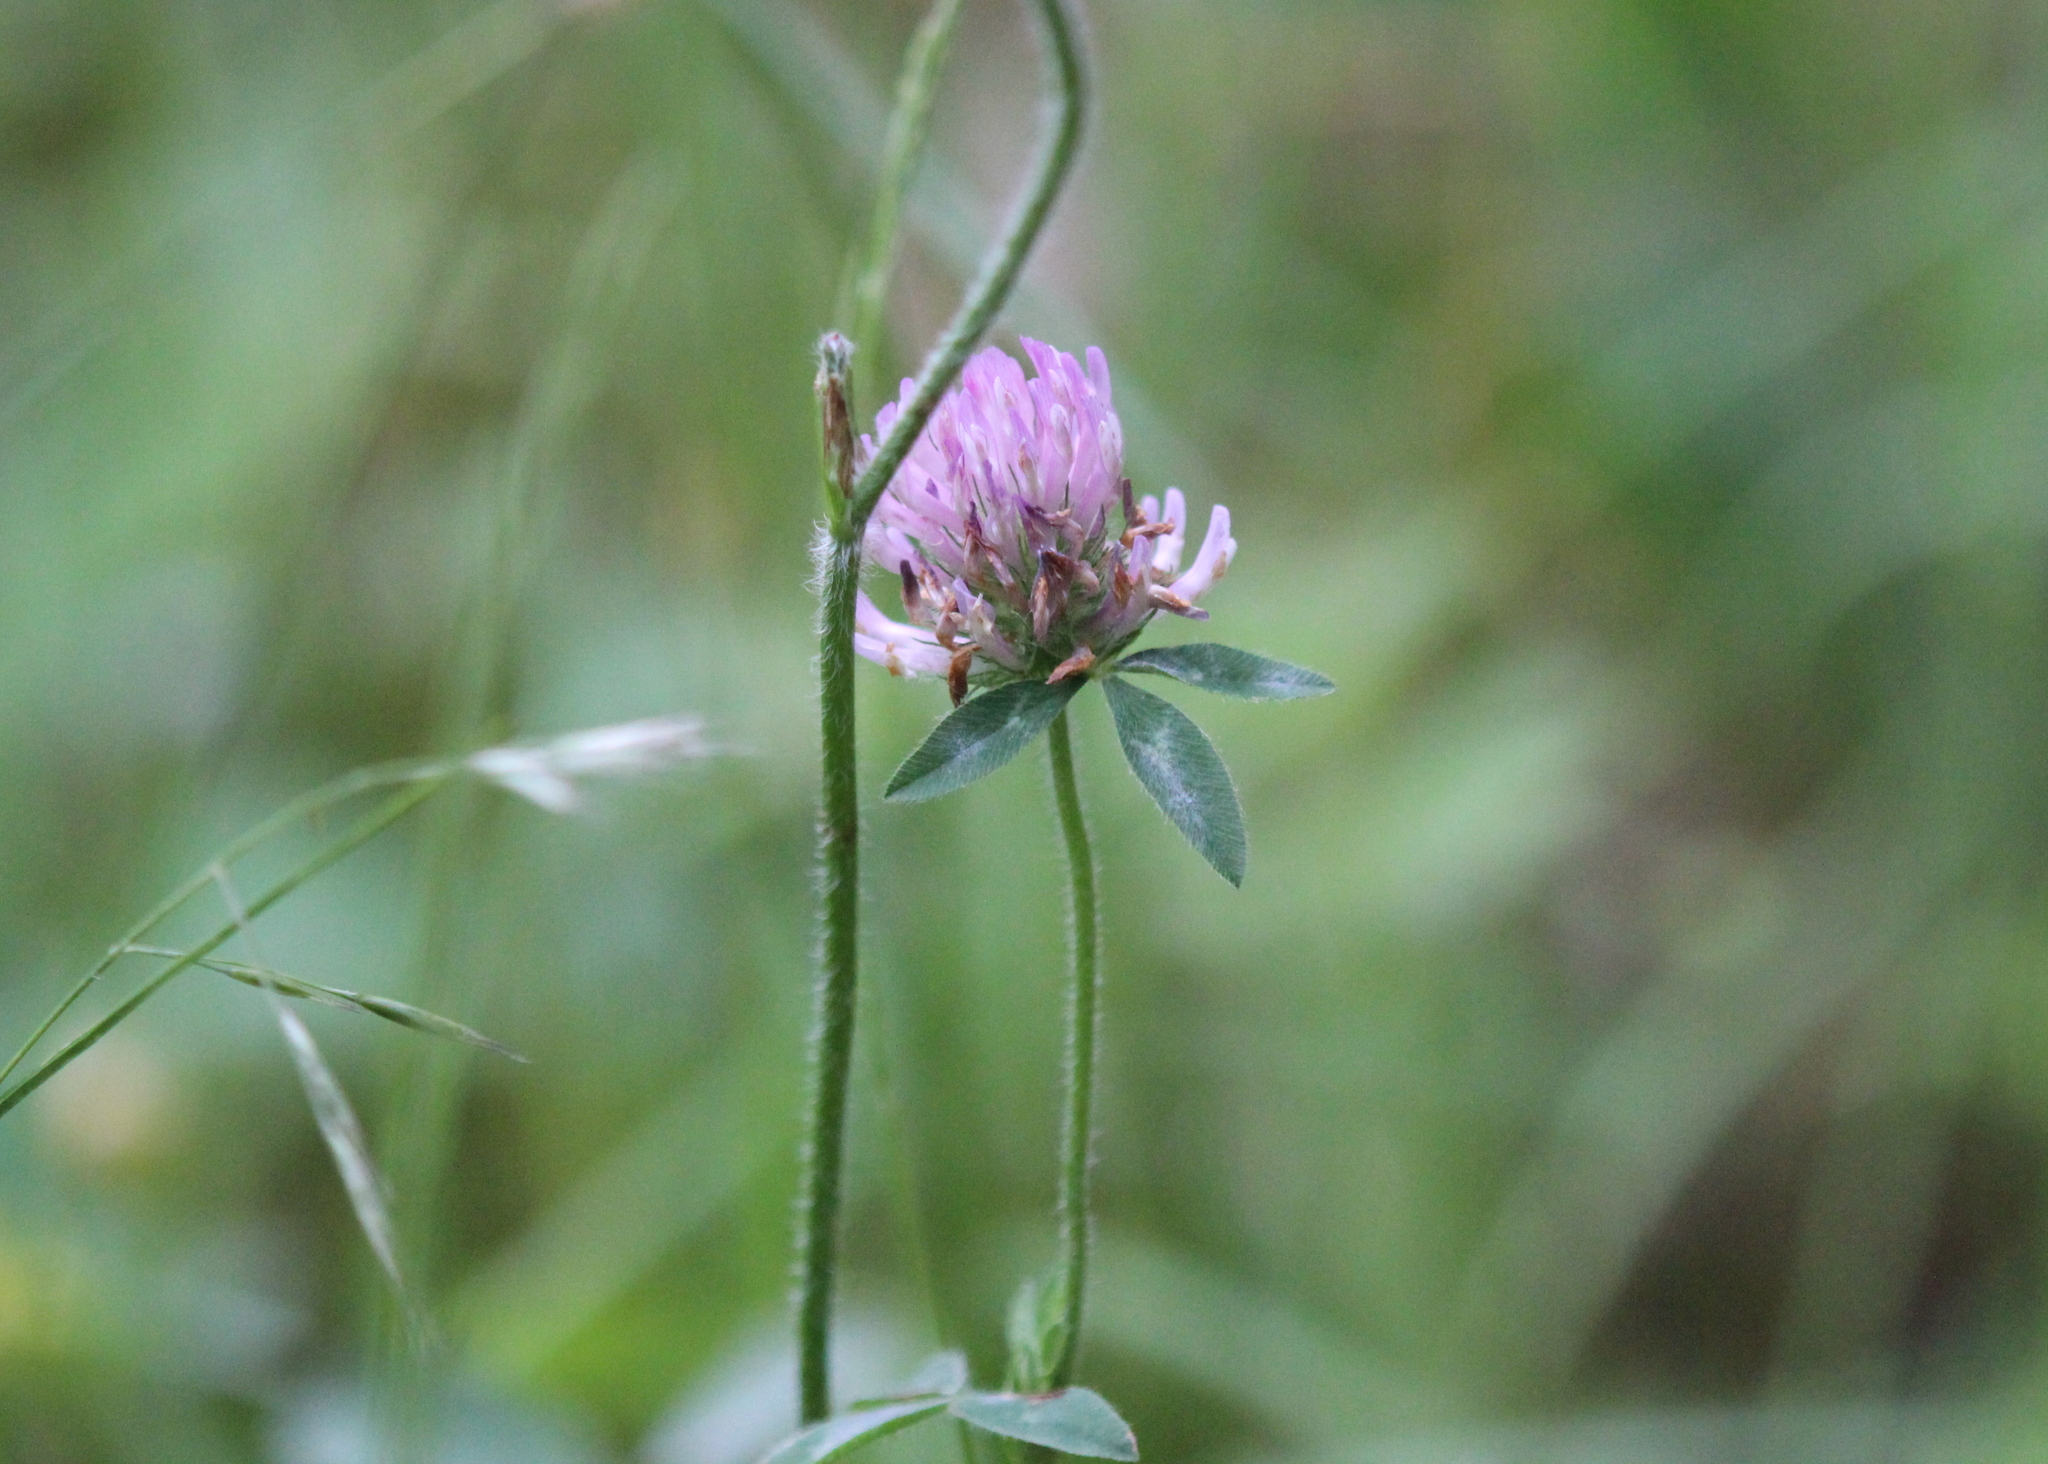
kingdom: Plantae
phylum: Tracheophyta
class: Magnoliopsida
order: Fabales
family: Fabaceae
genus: Trifolium
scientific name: Trifolium pratense
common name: Red clover
